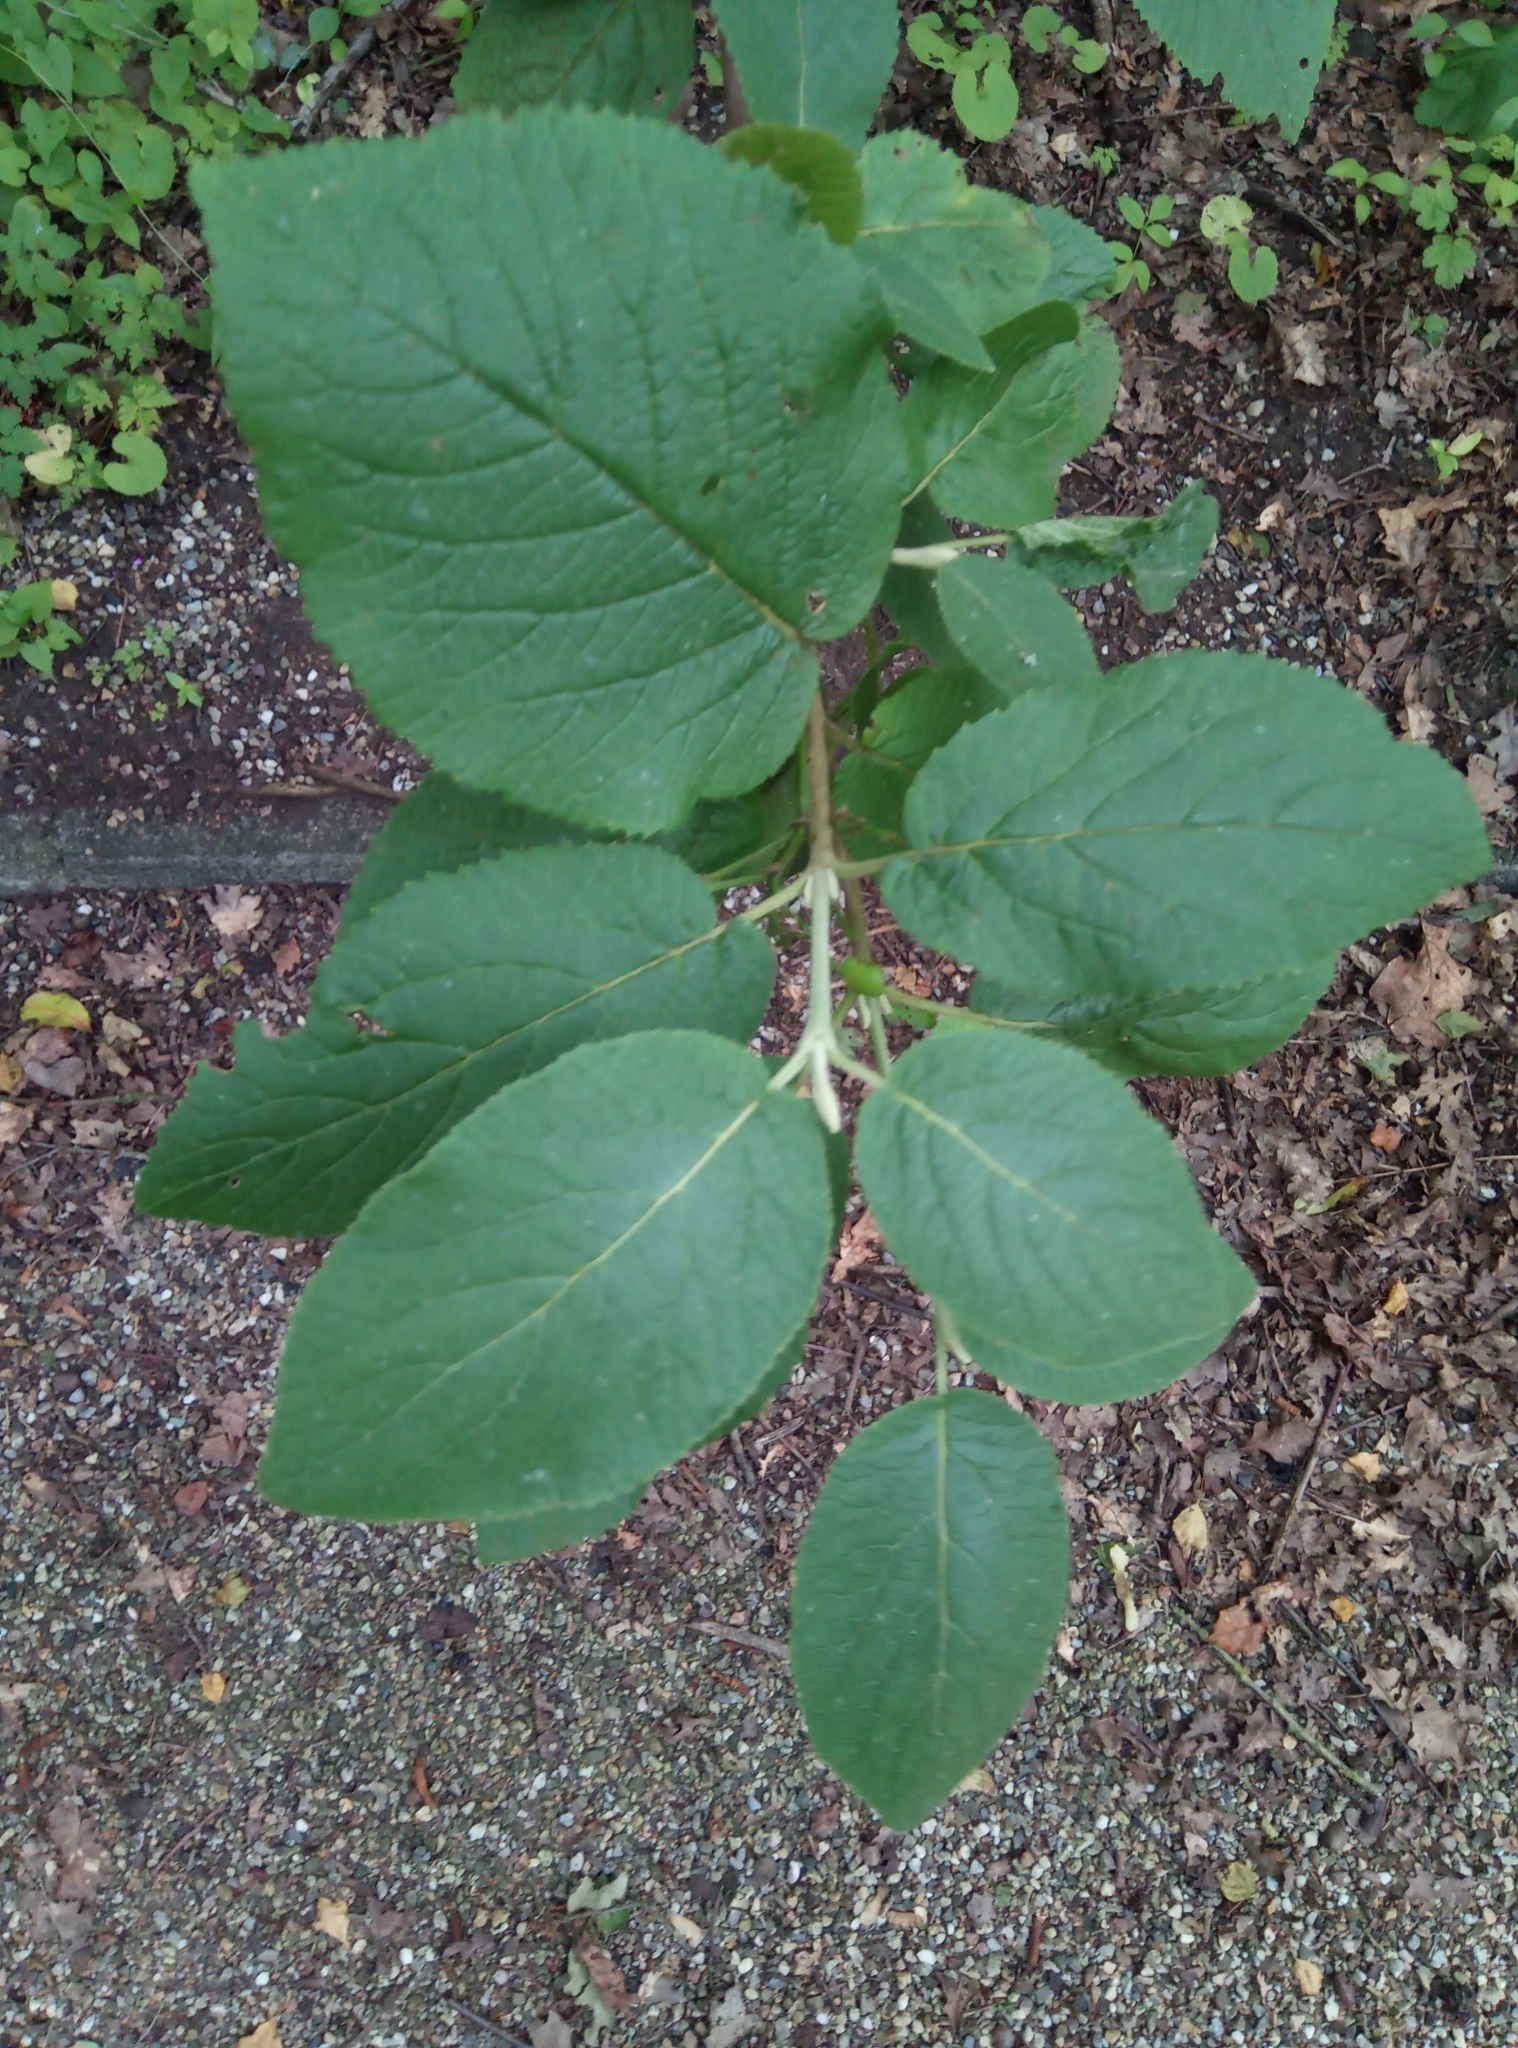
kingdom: Plantae
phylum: Tracheophyta
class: Magnoliopsida
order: Dipsacales
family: Viburnaceae
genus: Viburnum
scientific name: Viburnum lantana
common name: Wayfaring tree
